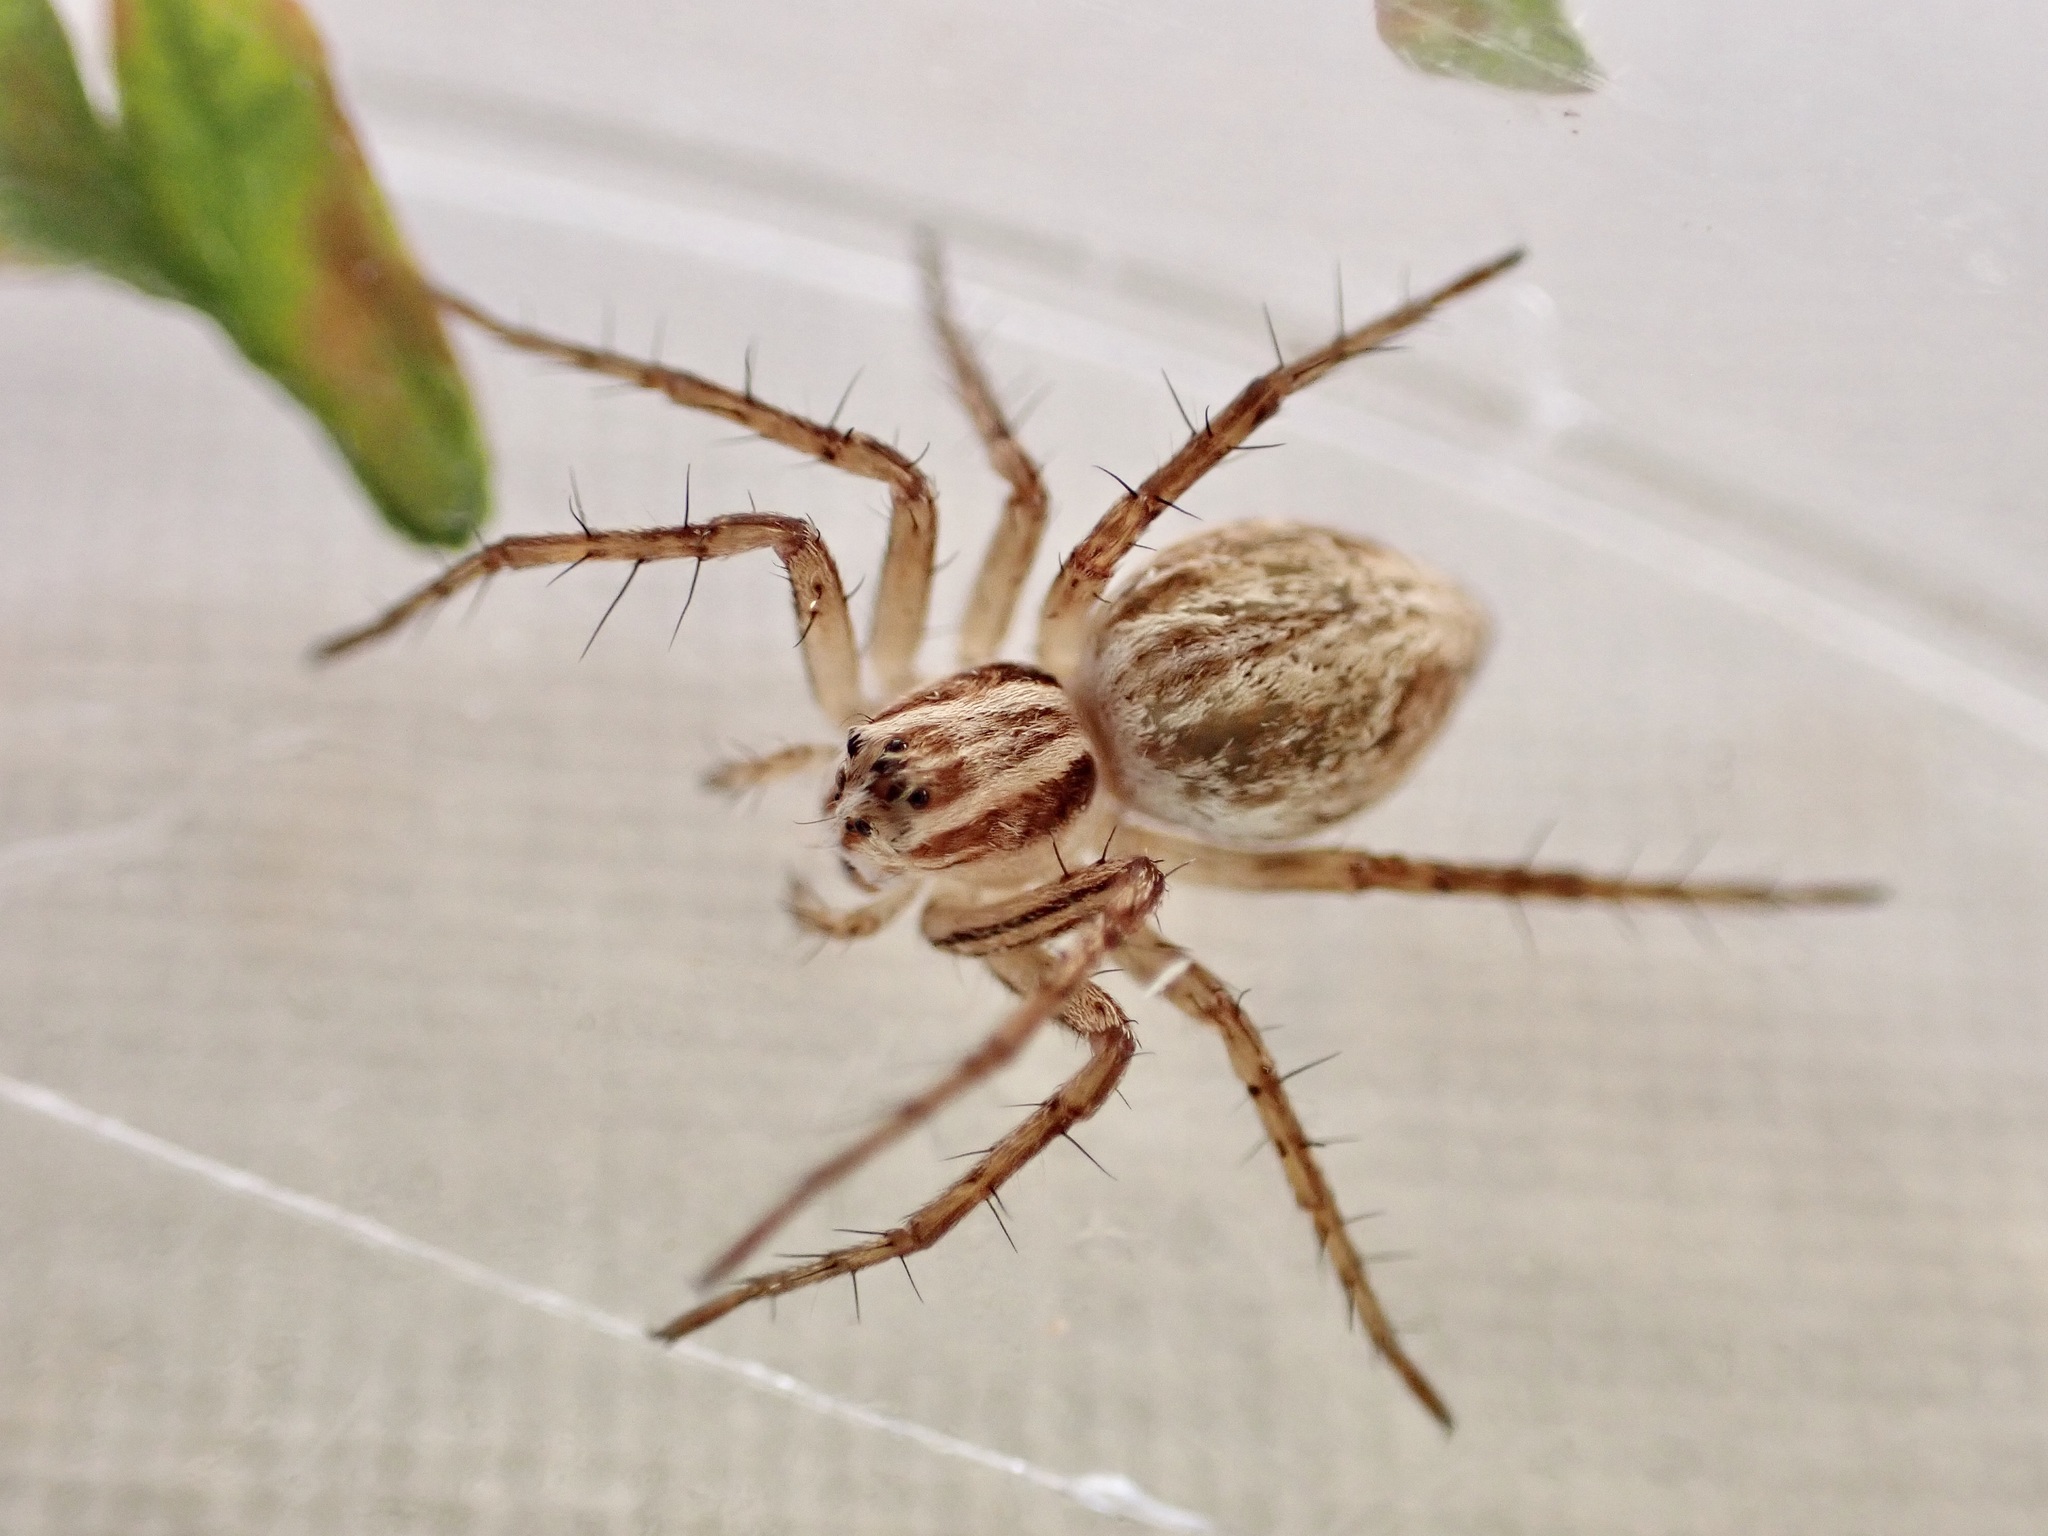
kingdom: Animalia
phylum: Arthropoda
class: Arachnida
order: Araneae
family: Oxyopidae
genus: Oxyopes
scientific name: Oxyopes gracilipes
